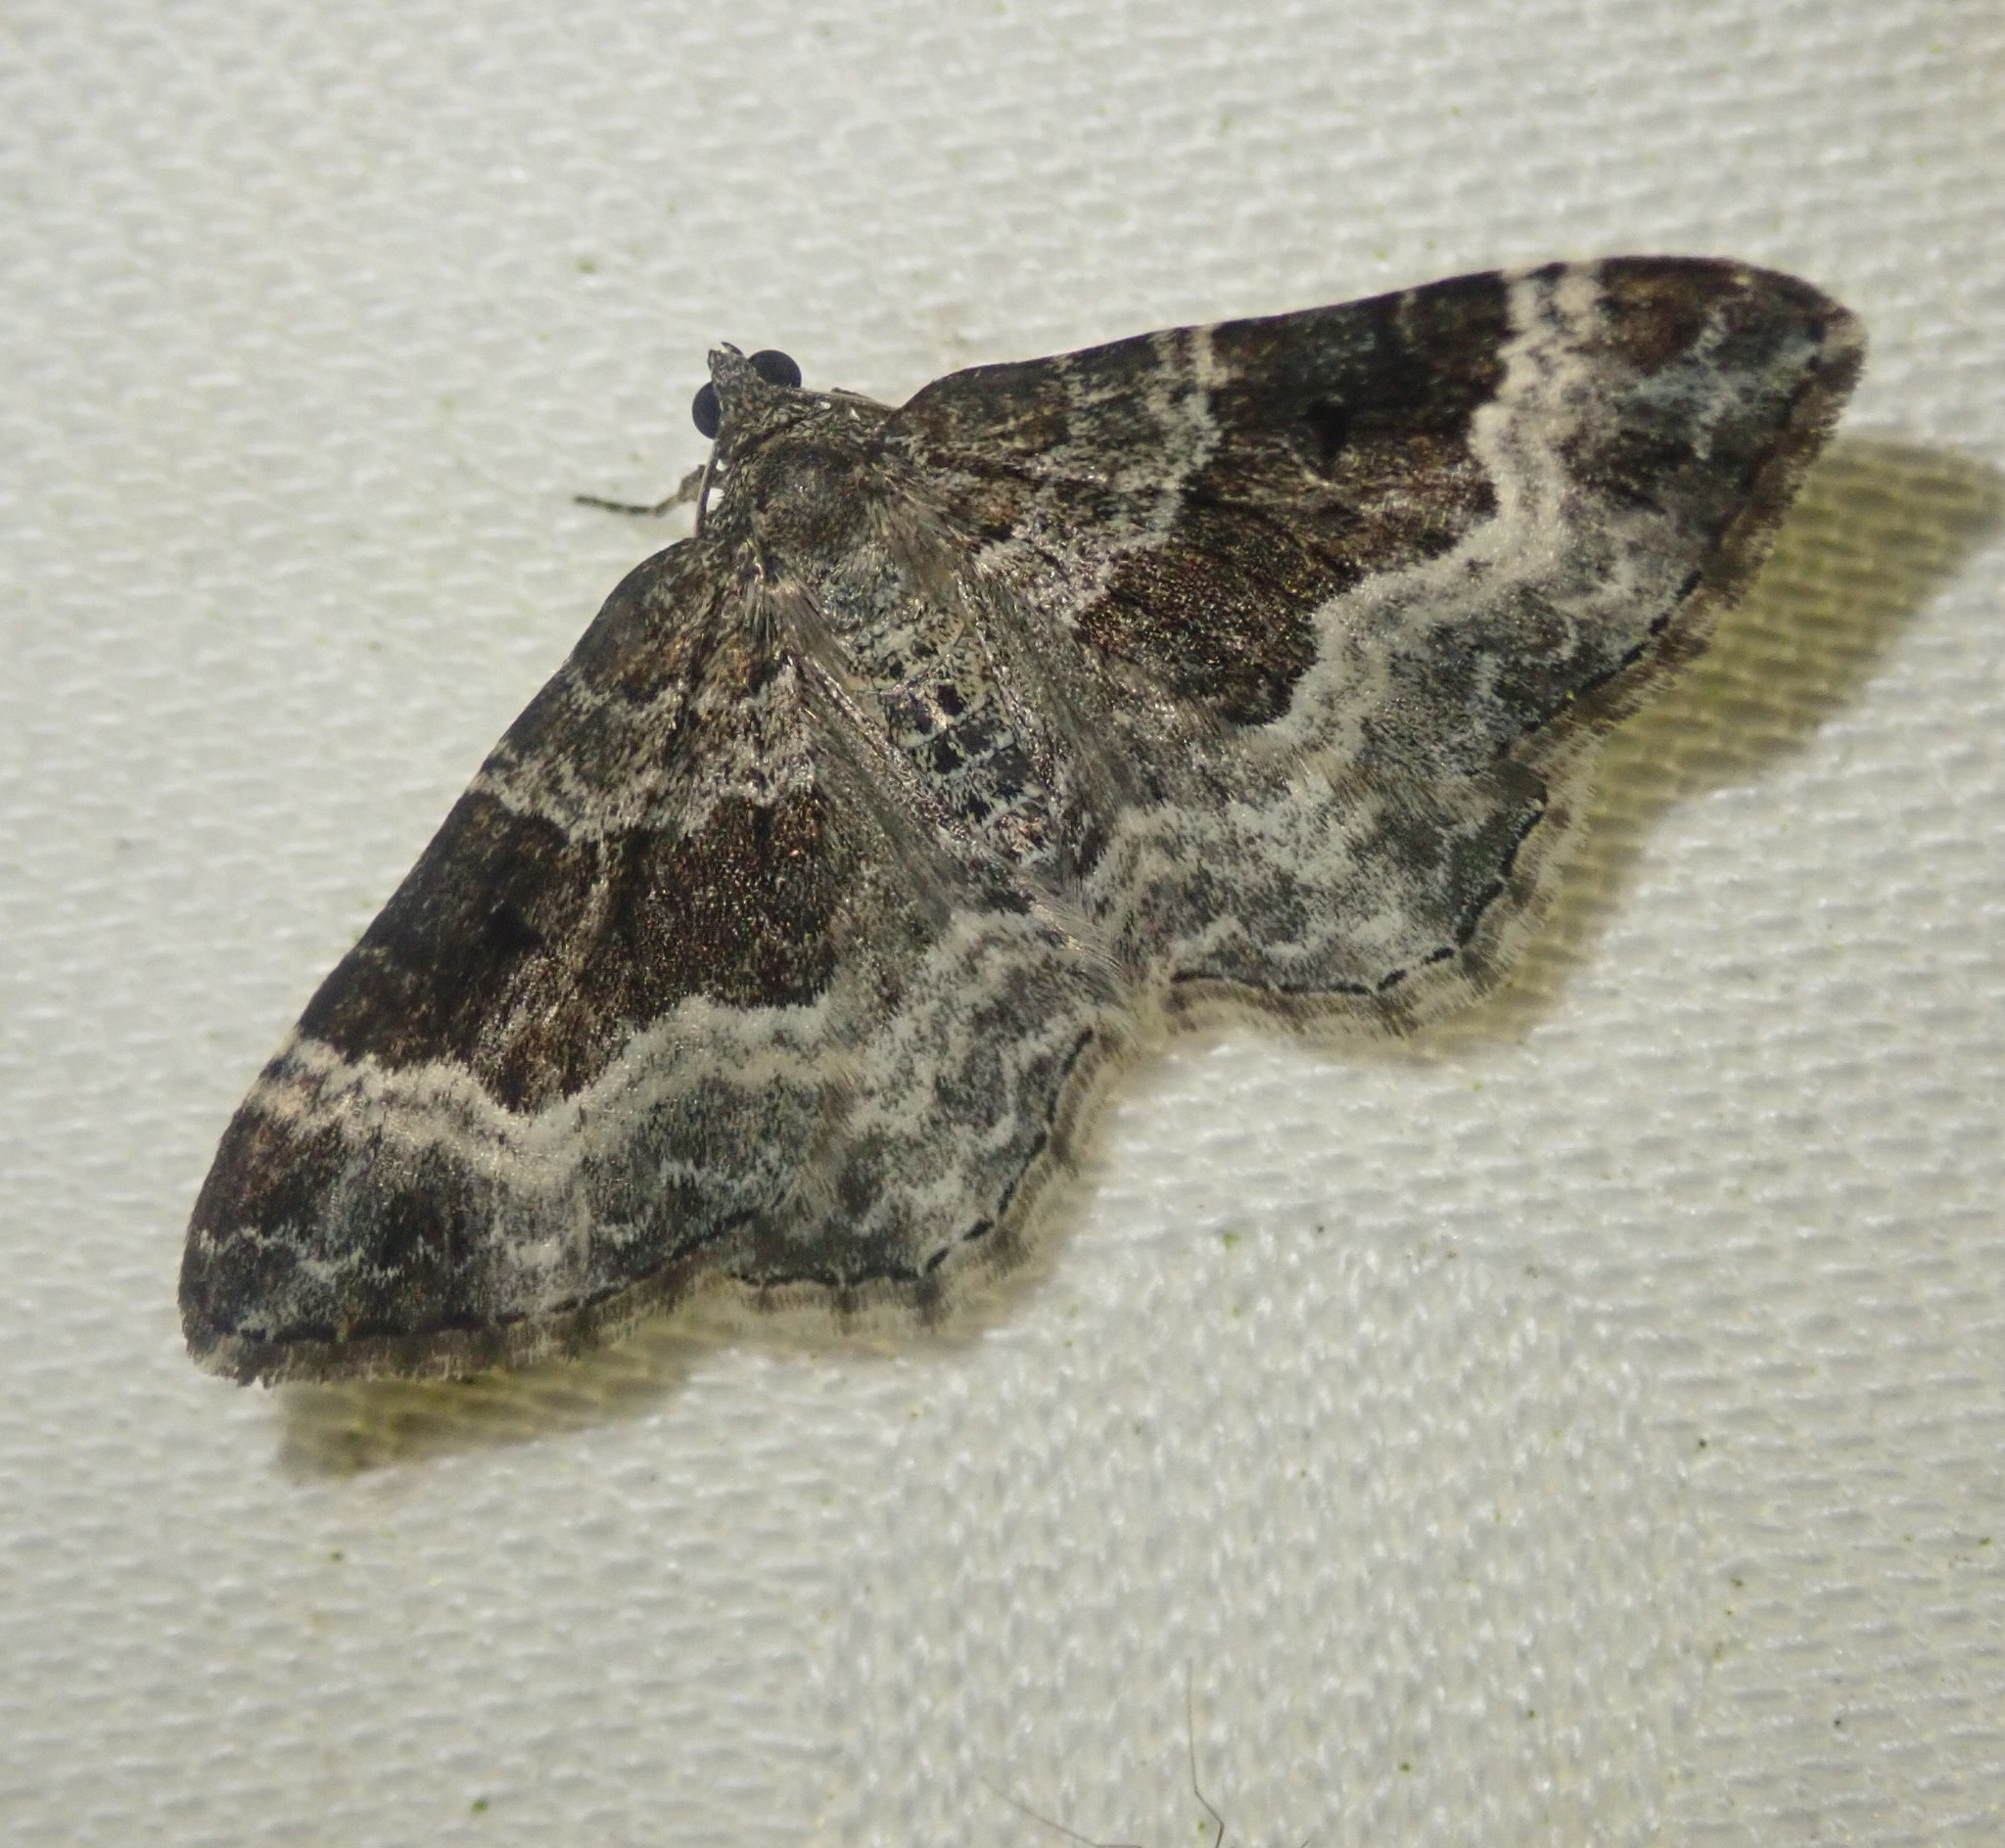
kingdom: Animalia
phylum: Arthropoda
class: Insecta
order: Lepidoptera
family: Geometridae
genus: Epirrhoe
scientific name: Epirrhoe alternata
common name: Common carpet
